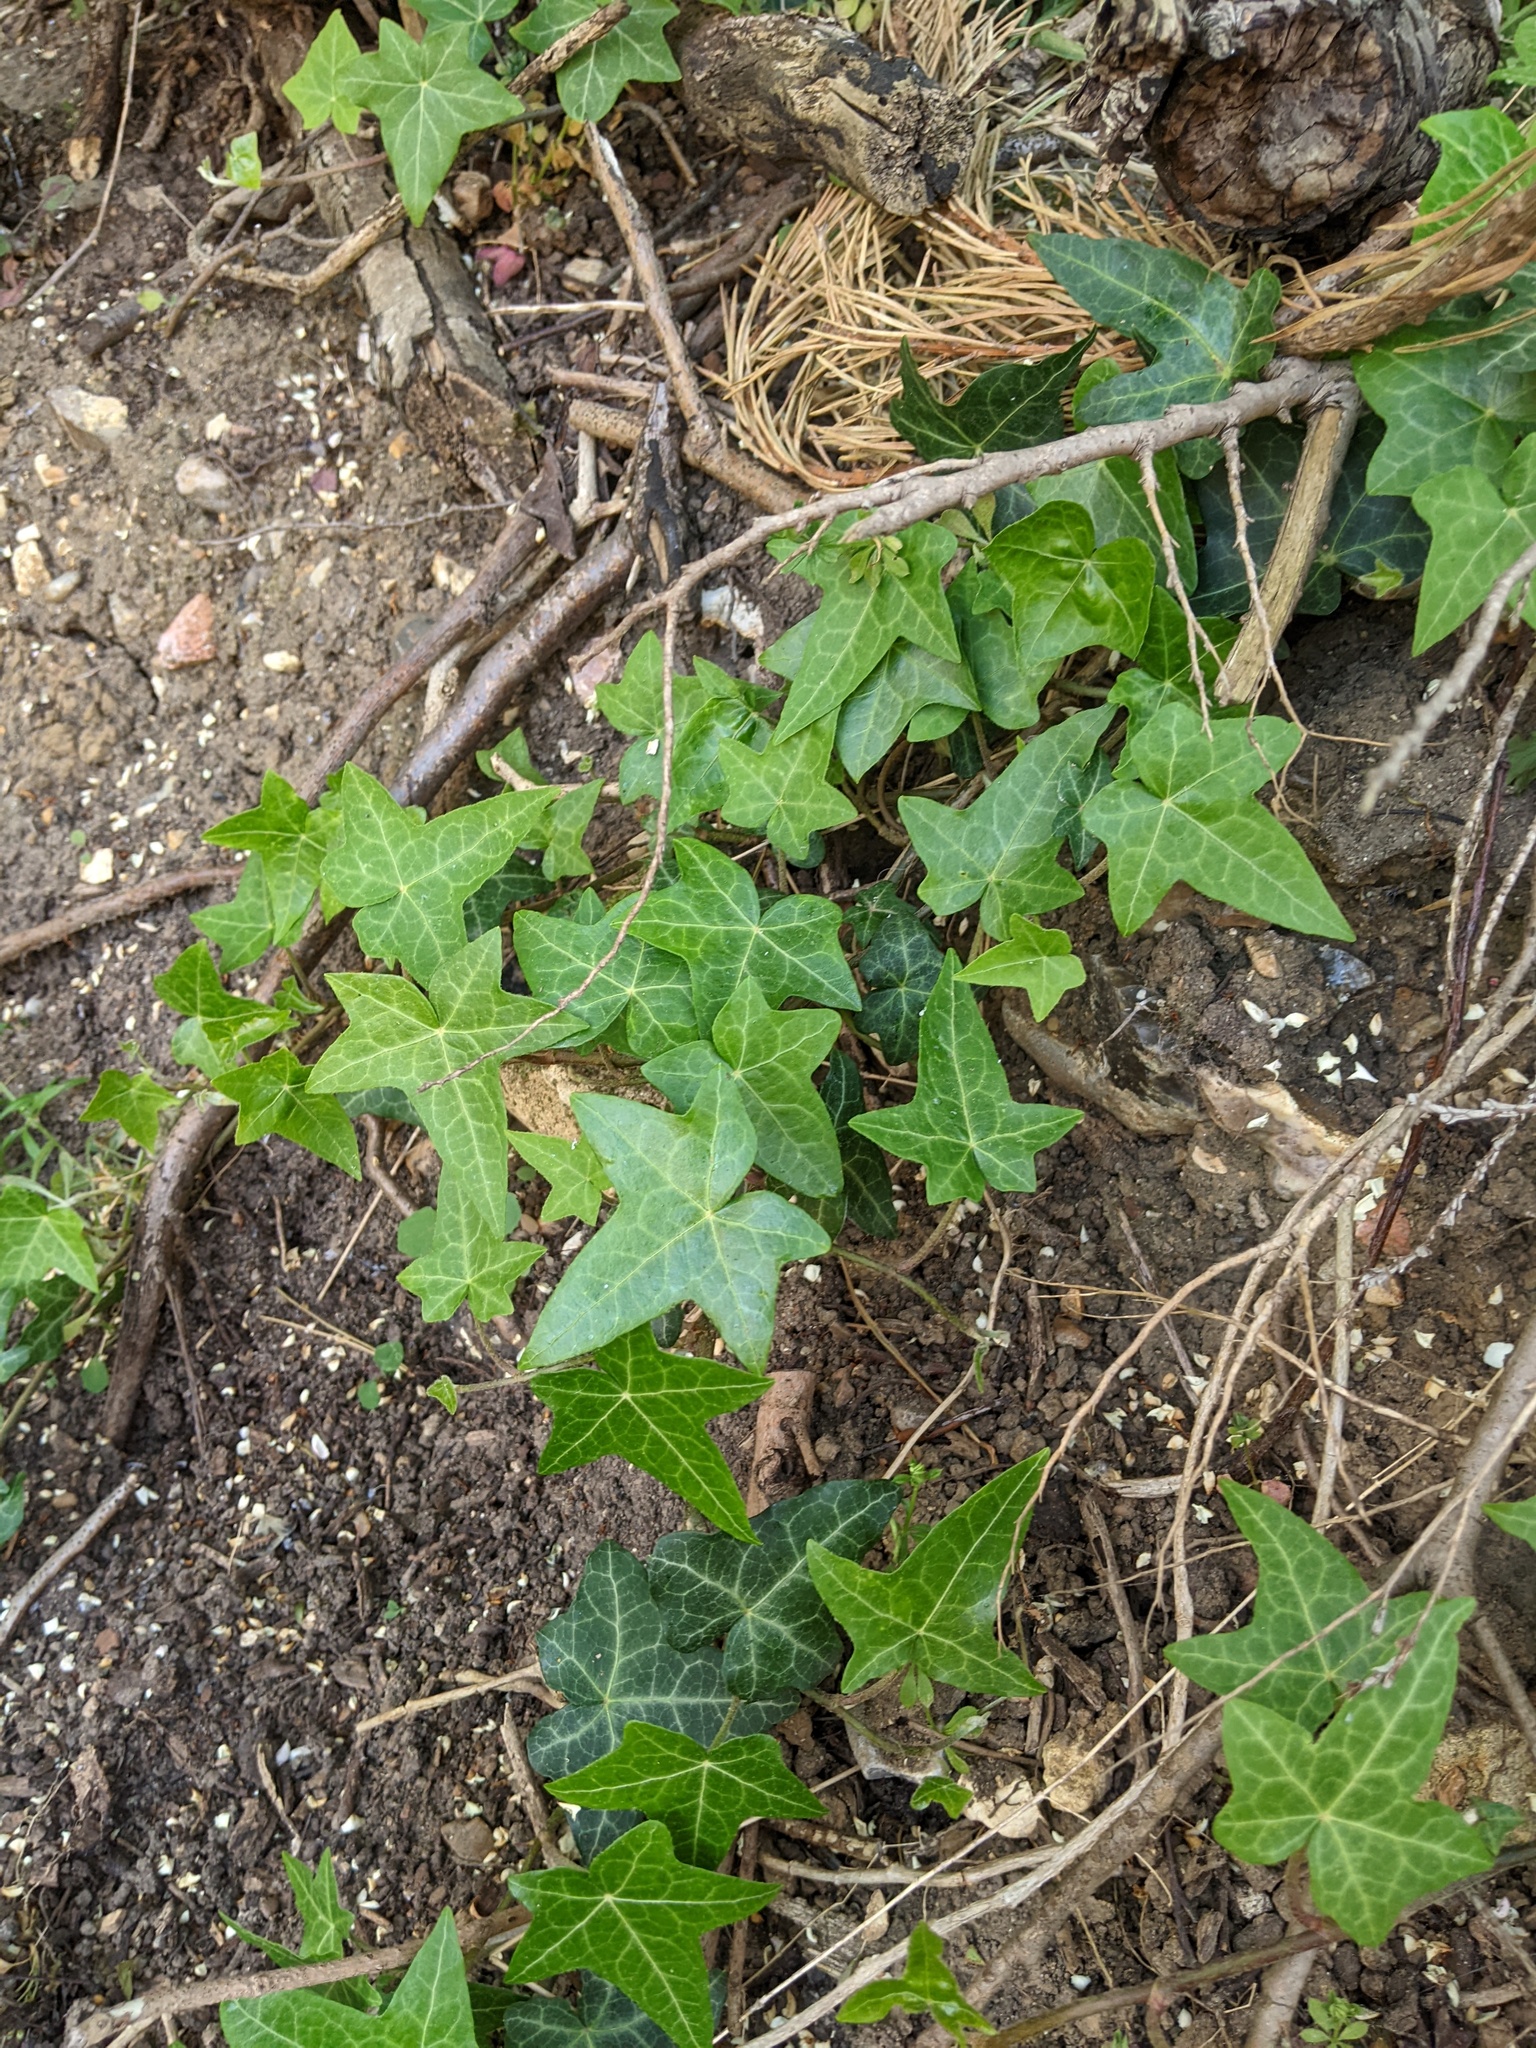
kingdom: Plantae
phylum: Tracheophyta
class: Magnoliopsida
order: Apiales
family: Araliaceae
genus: Hedera
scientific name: Hedera helix
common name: Ivy
